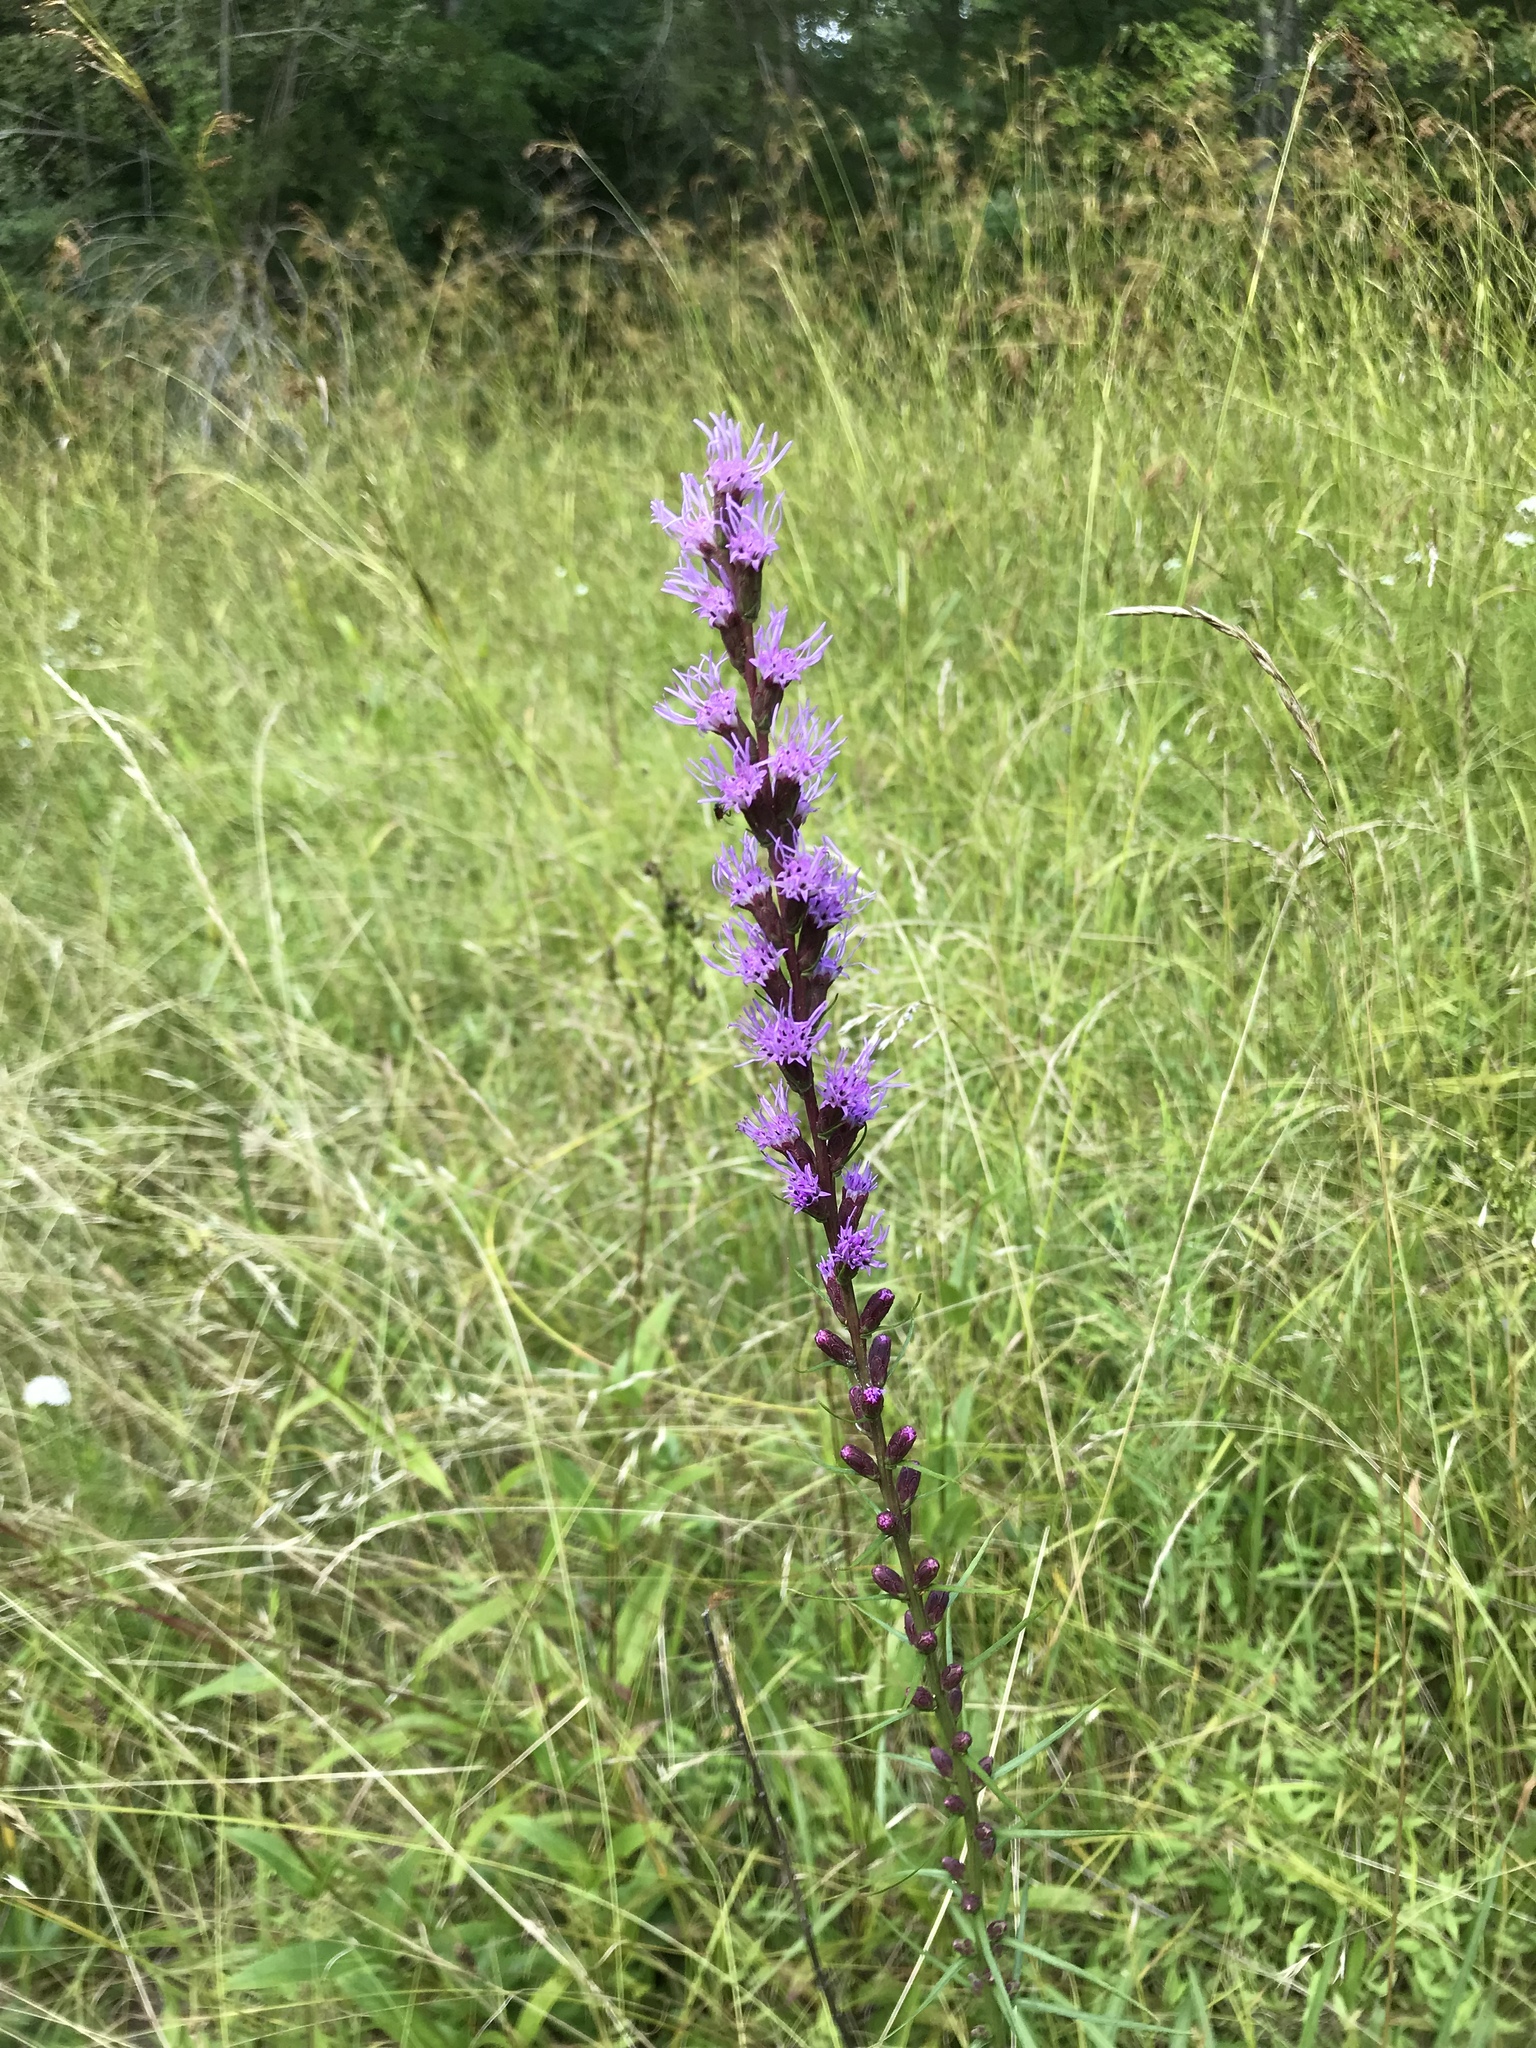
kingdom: Plantae
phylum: Tracheophyta
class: Magnoliopsida
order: Asterales
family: Asteraceae
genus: Liatris
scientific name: Liatris spicata
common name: Florist gayfeather
